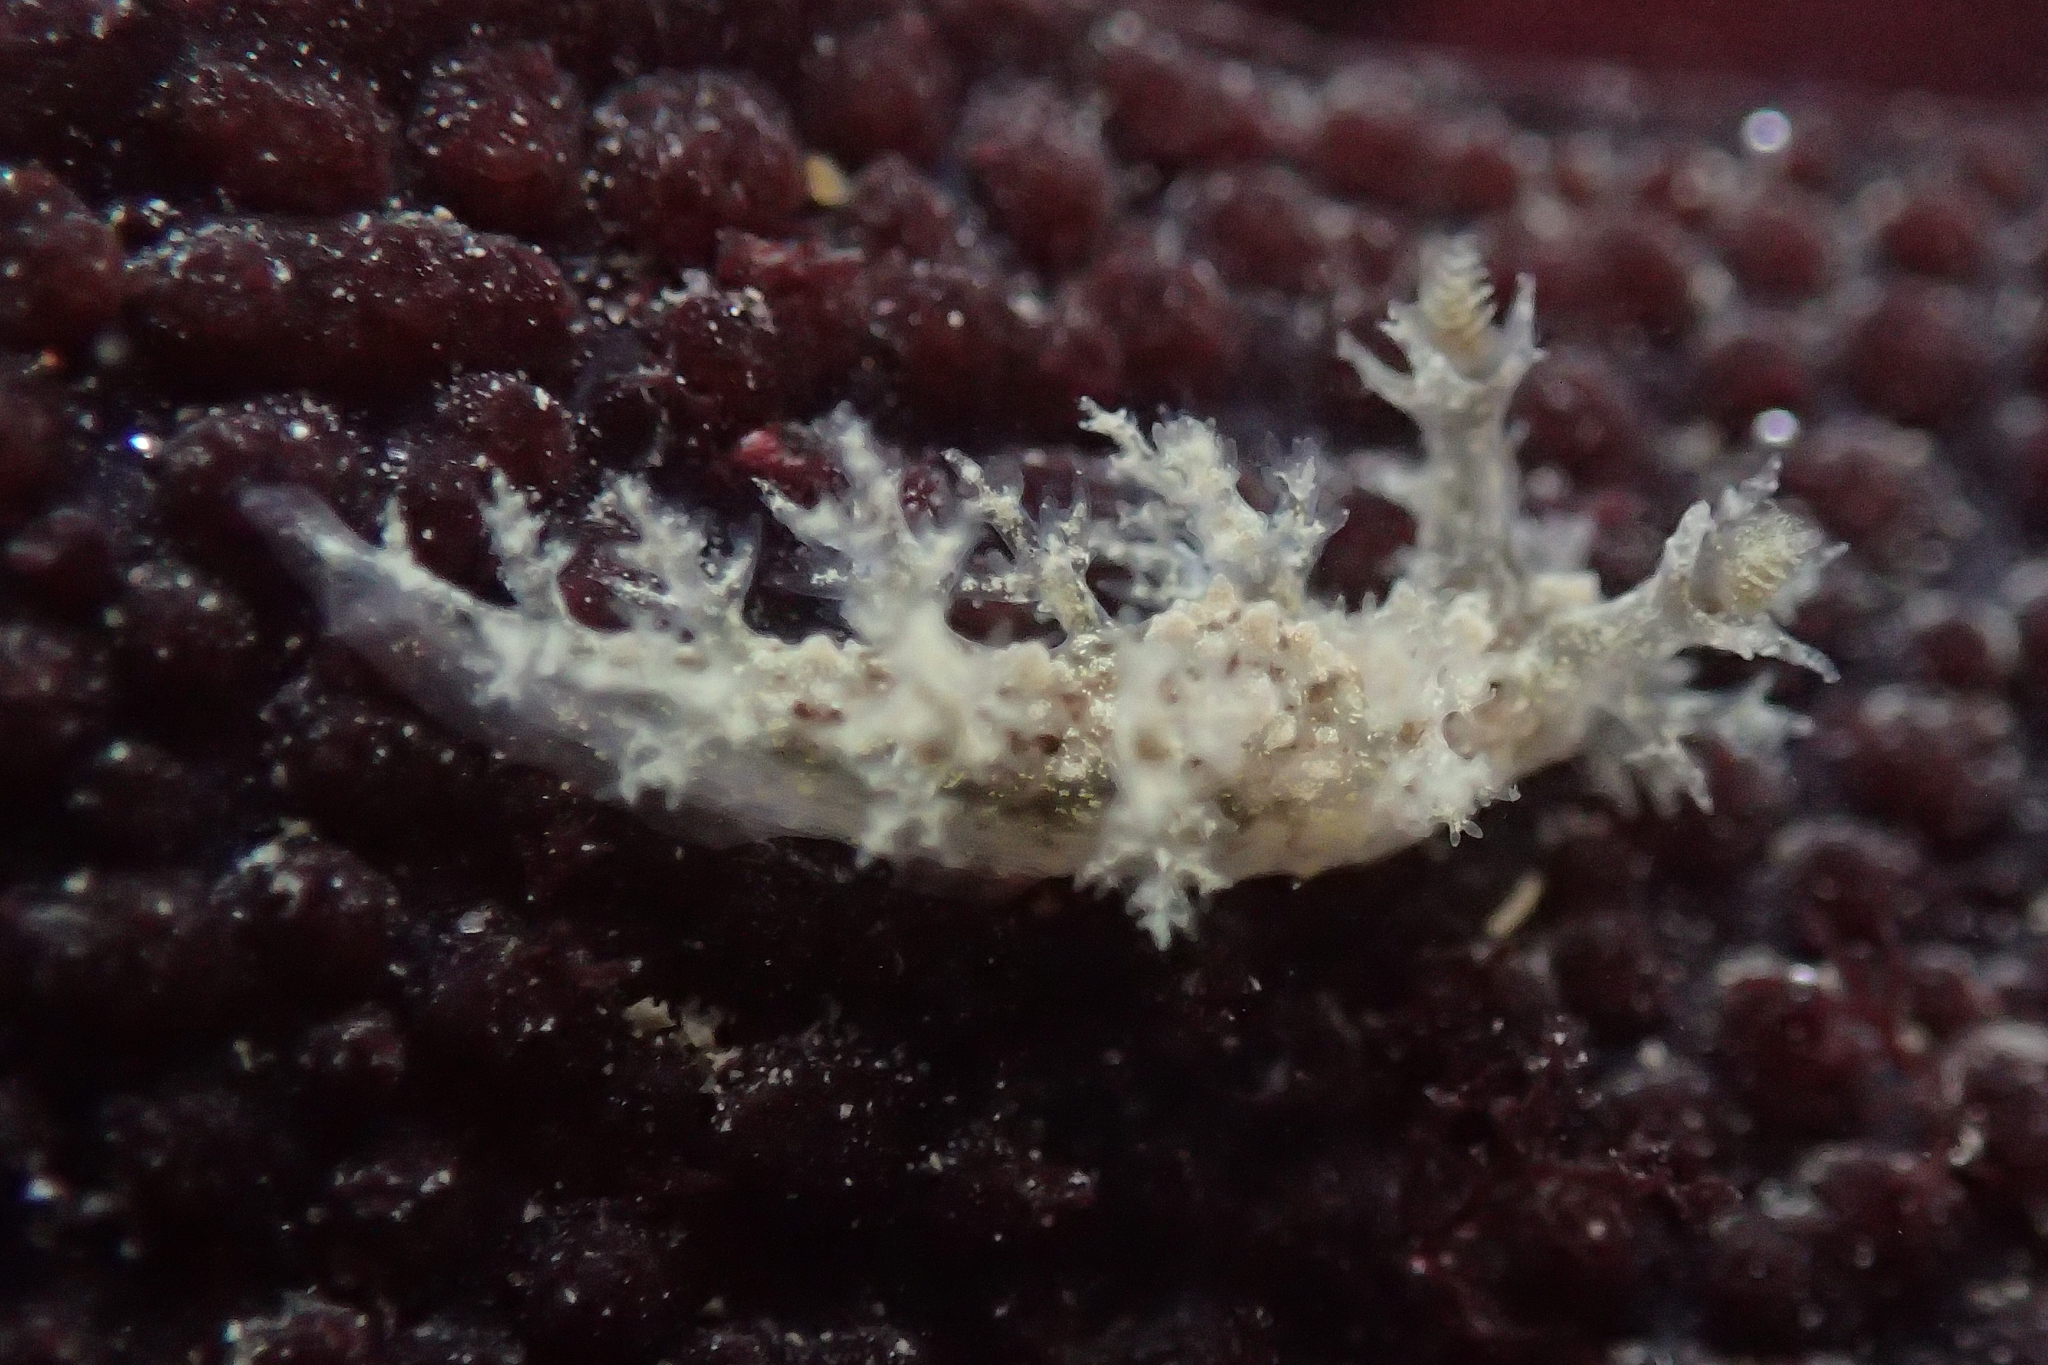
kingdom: Animalia
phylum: Mollusca
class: Gastropoda
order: Nudibranchia
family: Dendronotidae
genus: Dendronotus
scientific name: Dendronotus venustus
